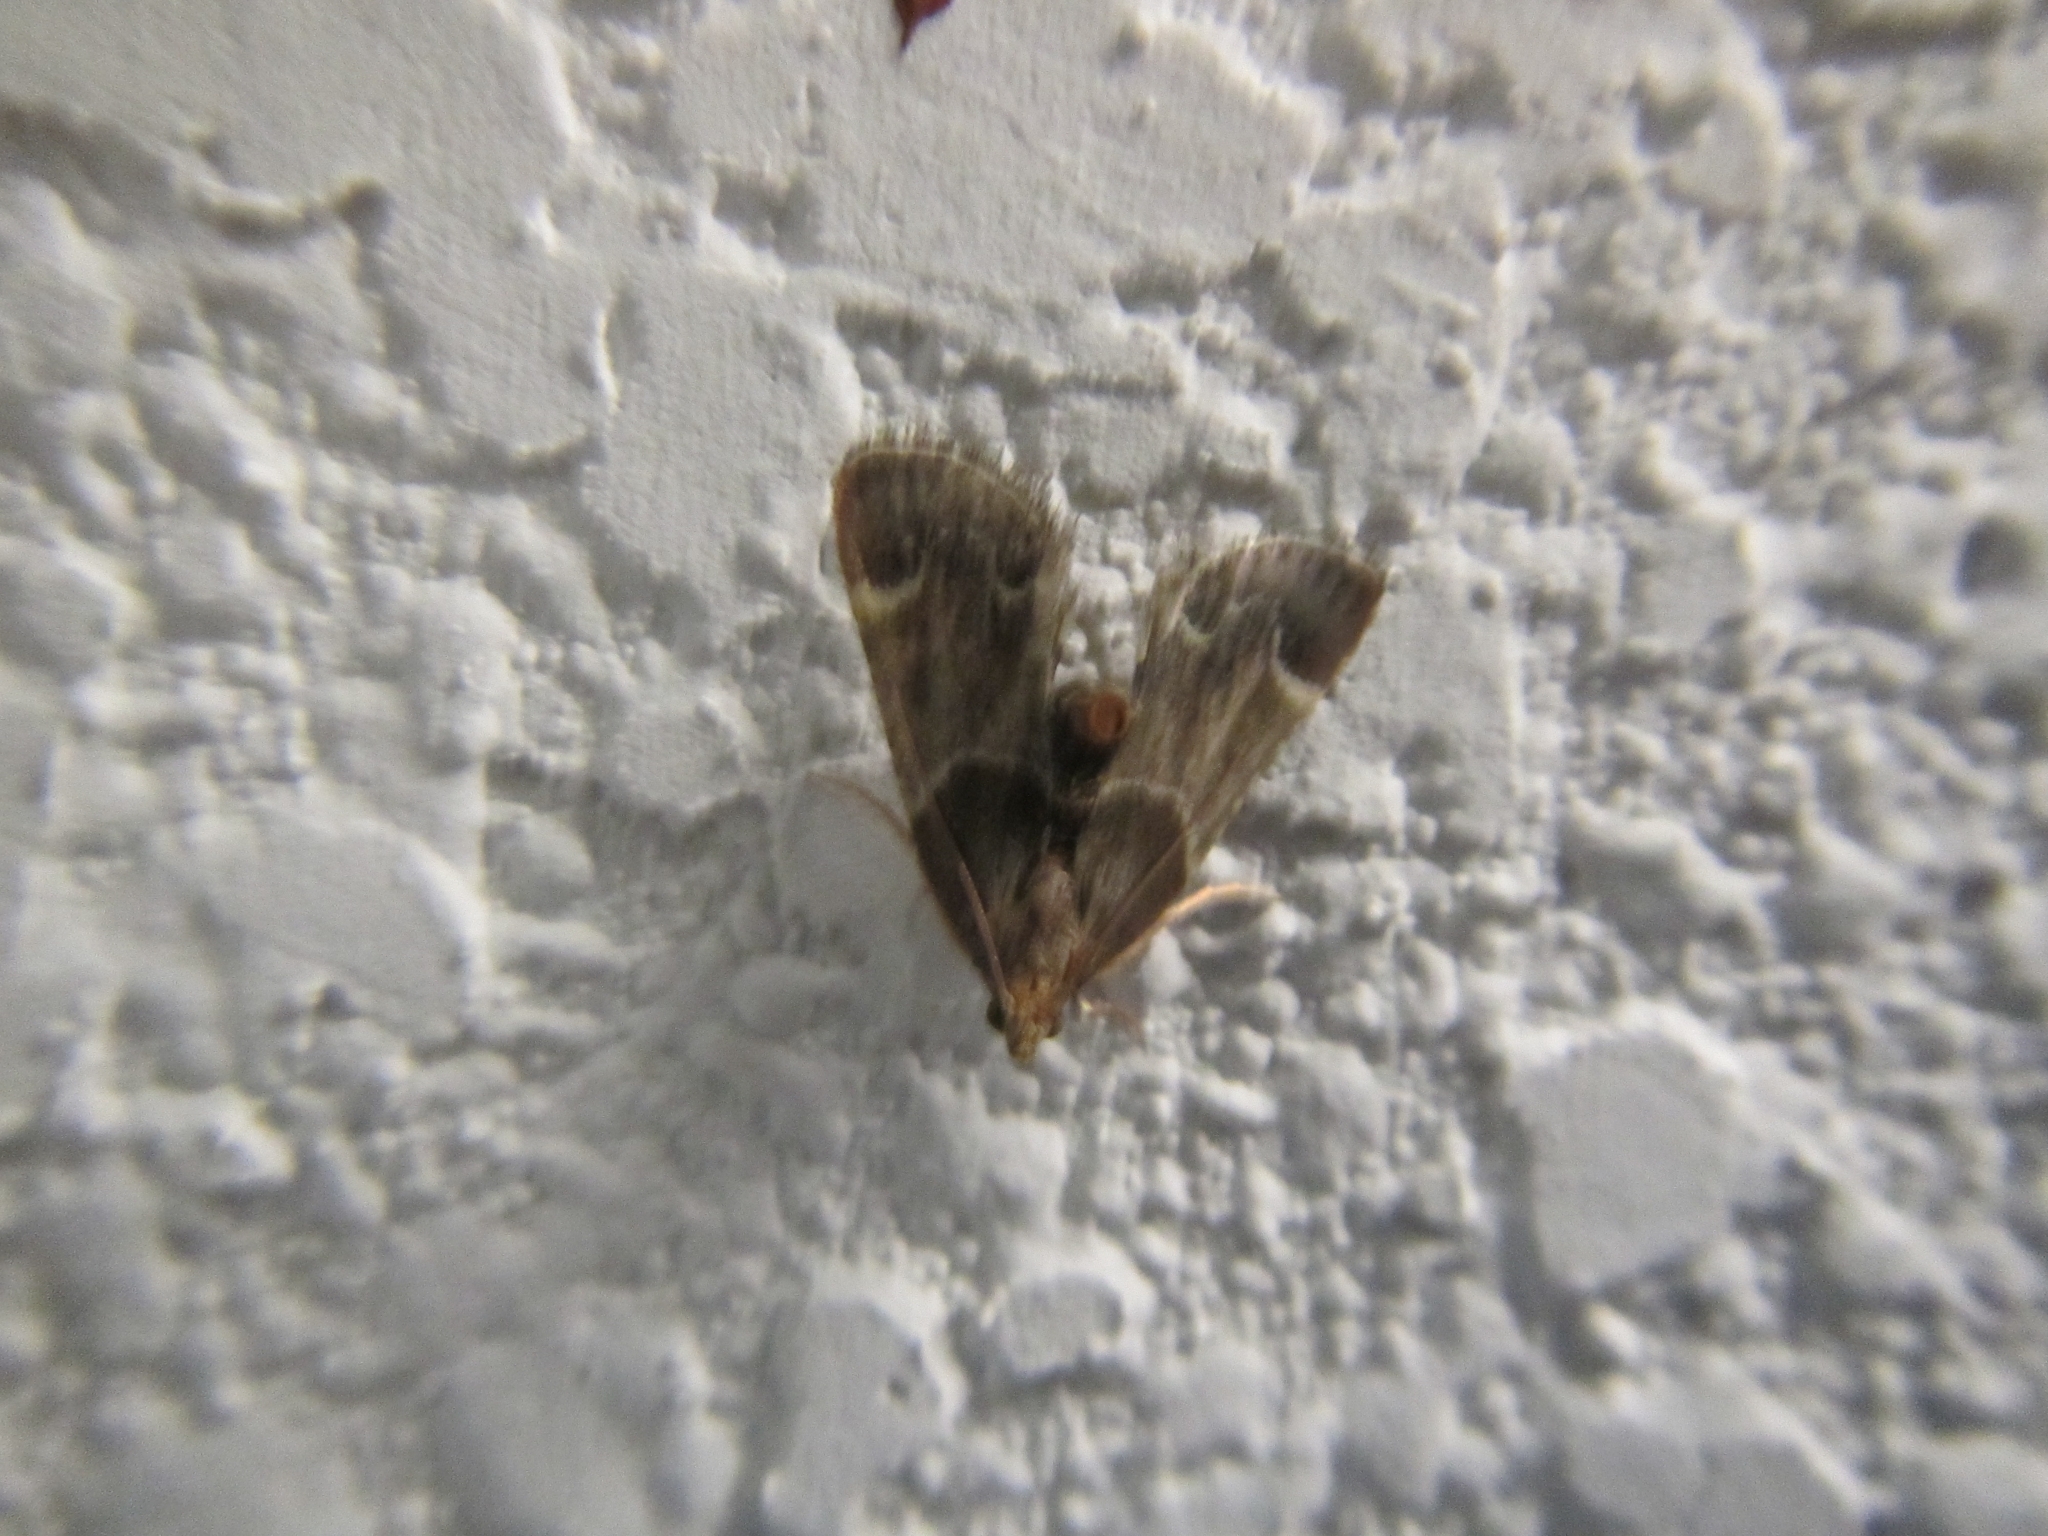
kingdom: Animalia
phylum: Arthropoda
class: Insecta
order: Lepidoptera
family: Pyralidae
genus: Pyralis
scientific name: Pyralis farinalis
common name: Meal moth
